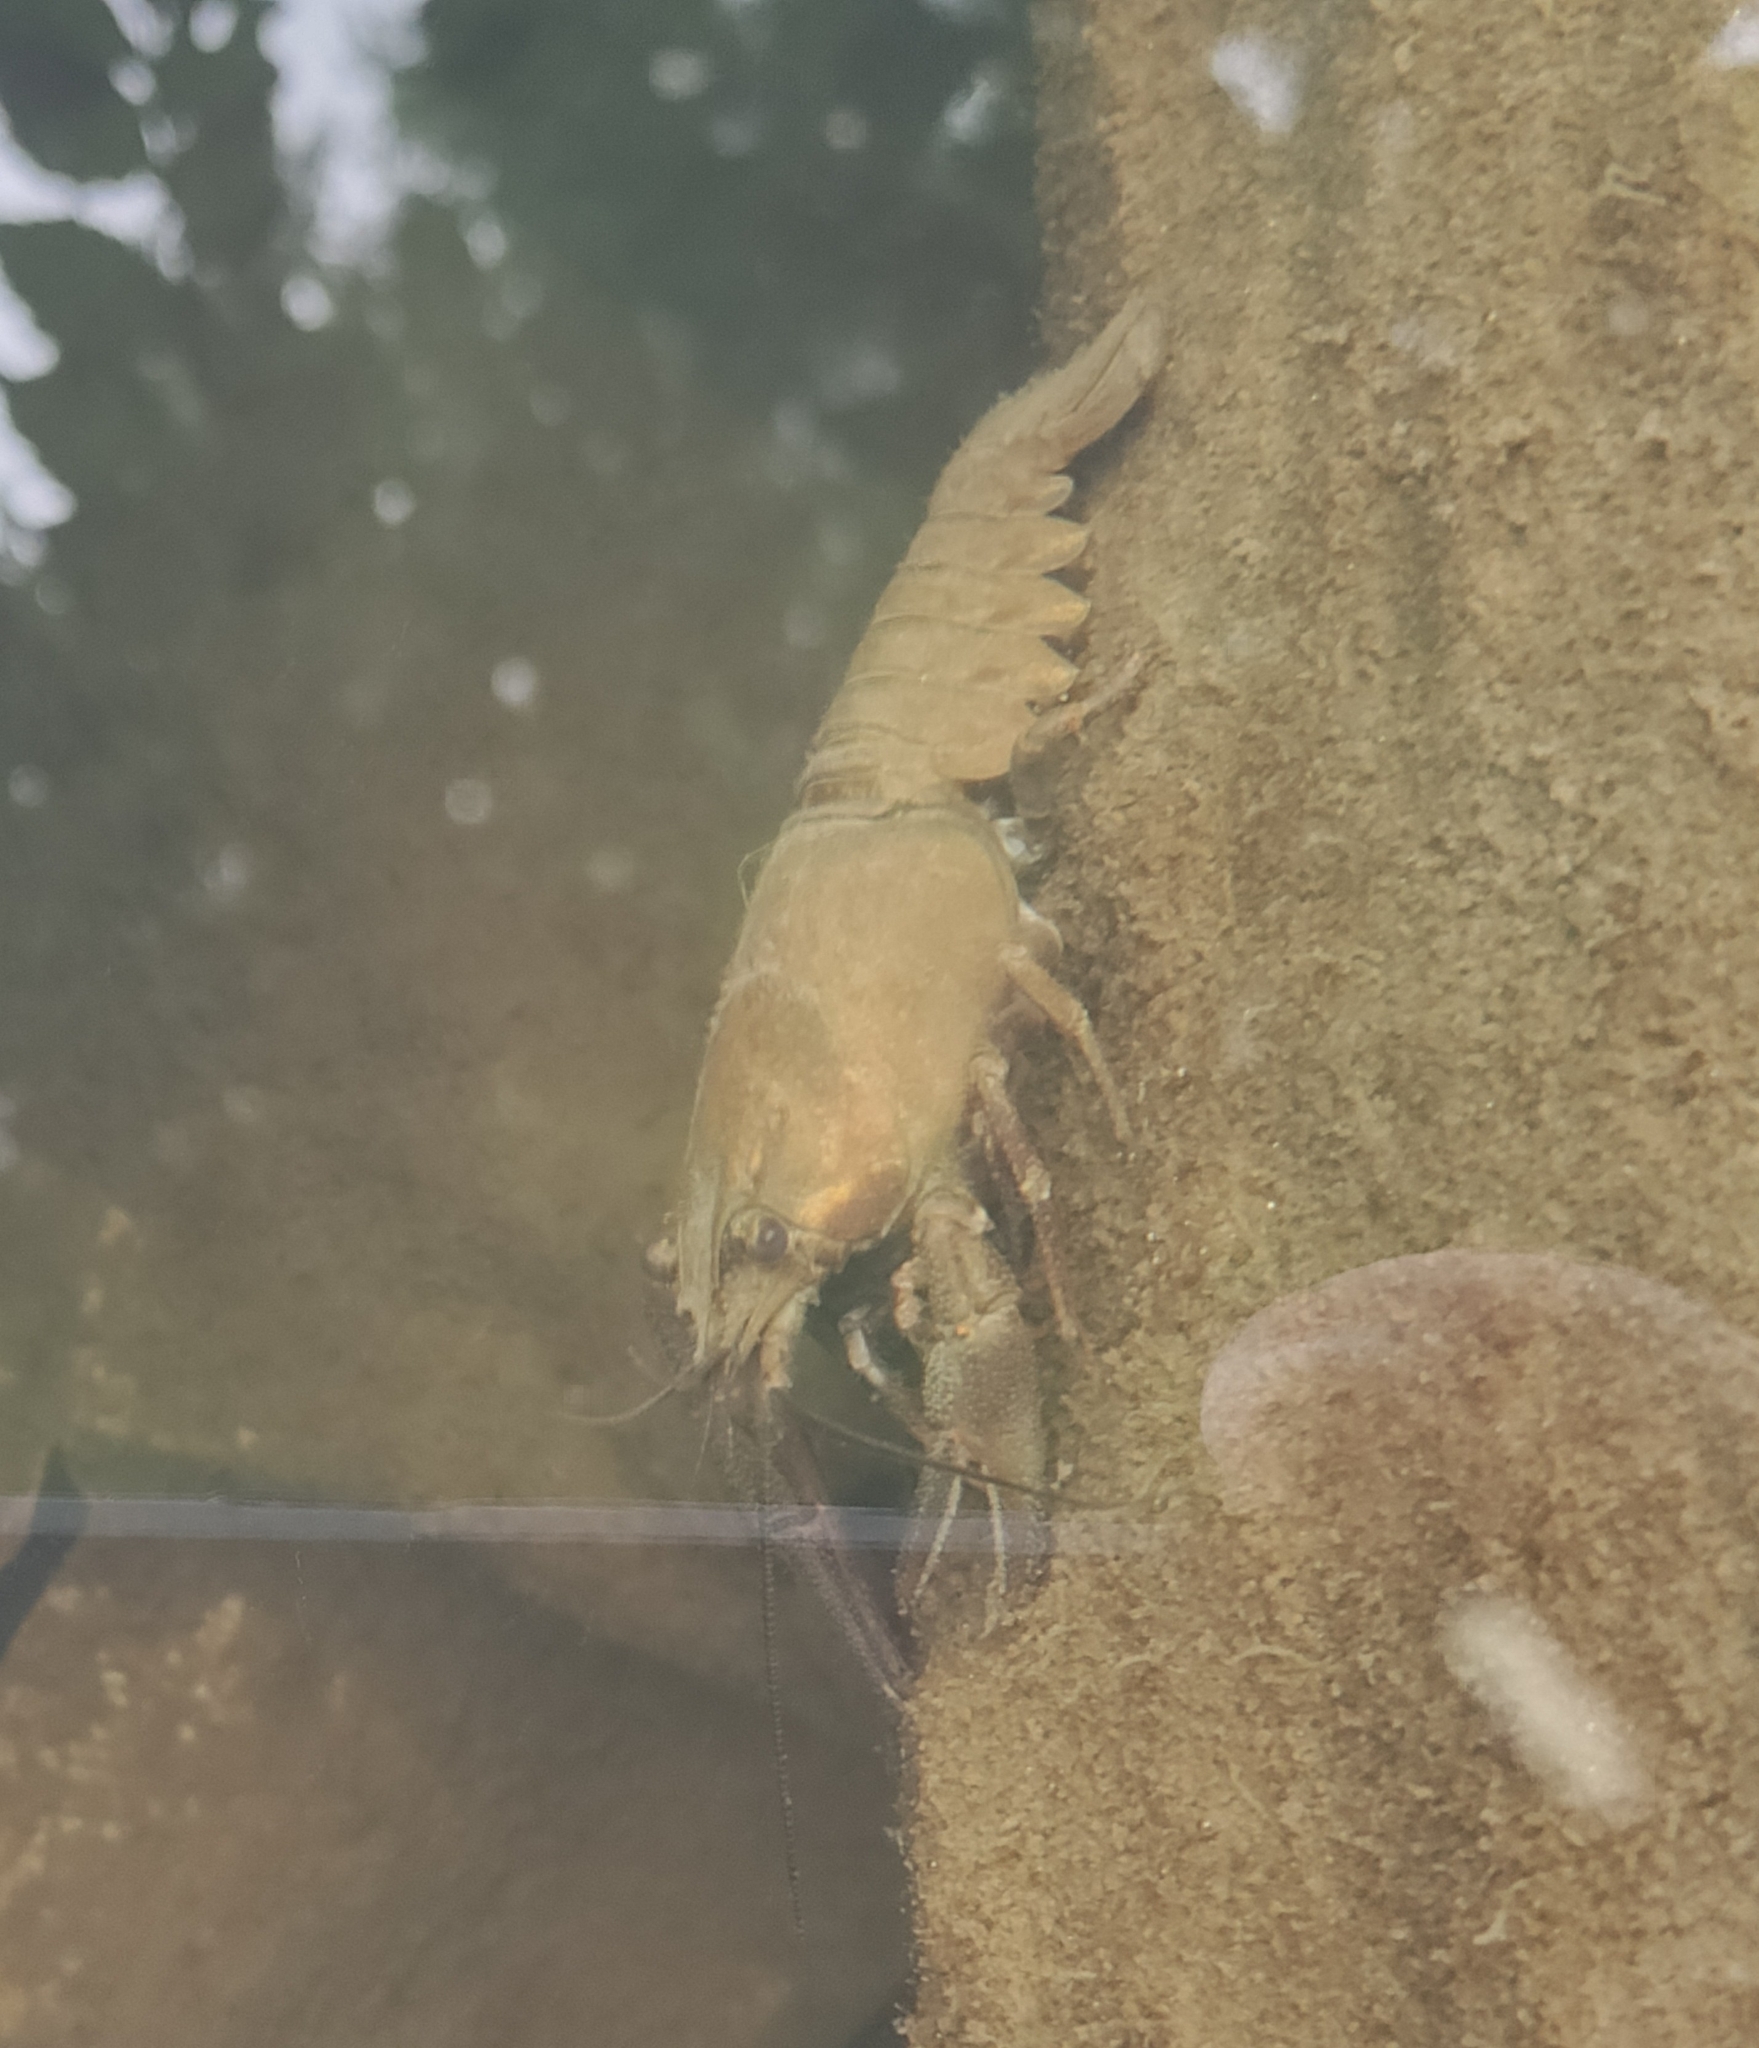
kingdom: Animalia
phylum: Arthropoda
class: Malacostraca
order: Decapoda
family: Astacidae
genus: Pacifastacus
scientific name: Pacifastacus leniusculus
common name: Signal crayfish
